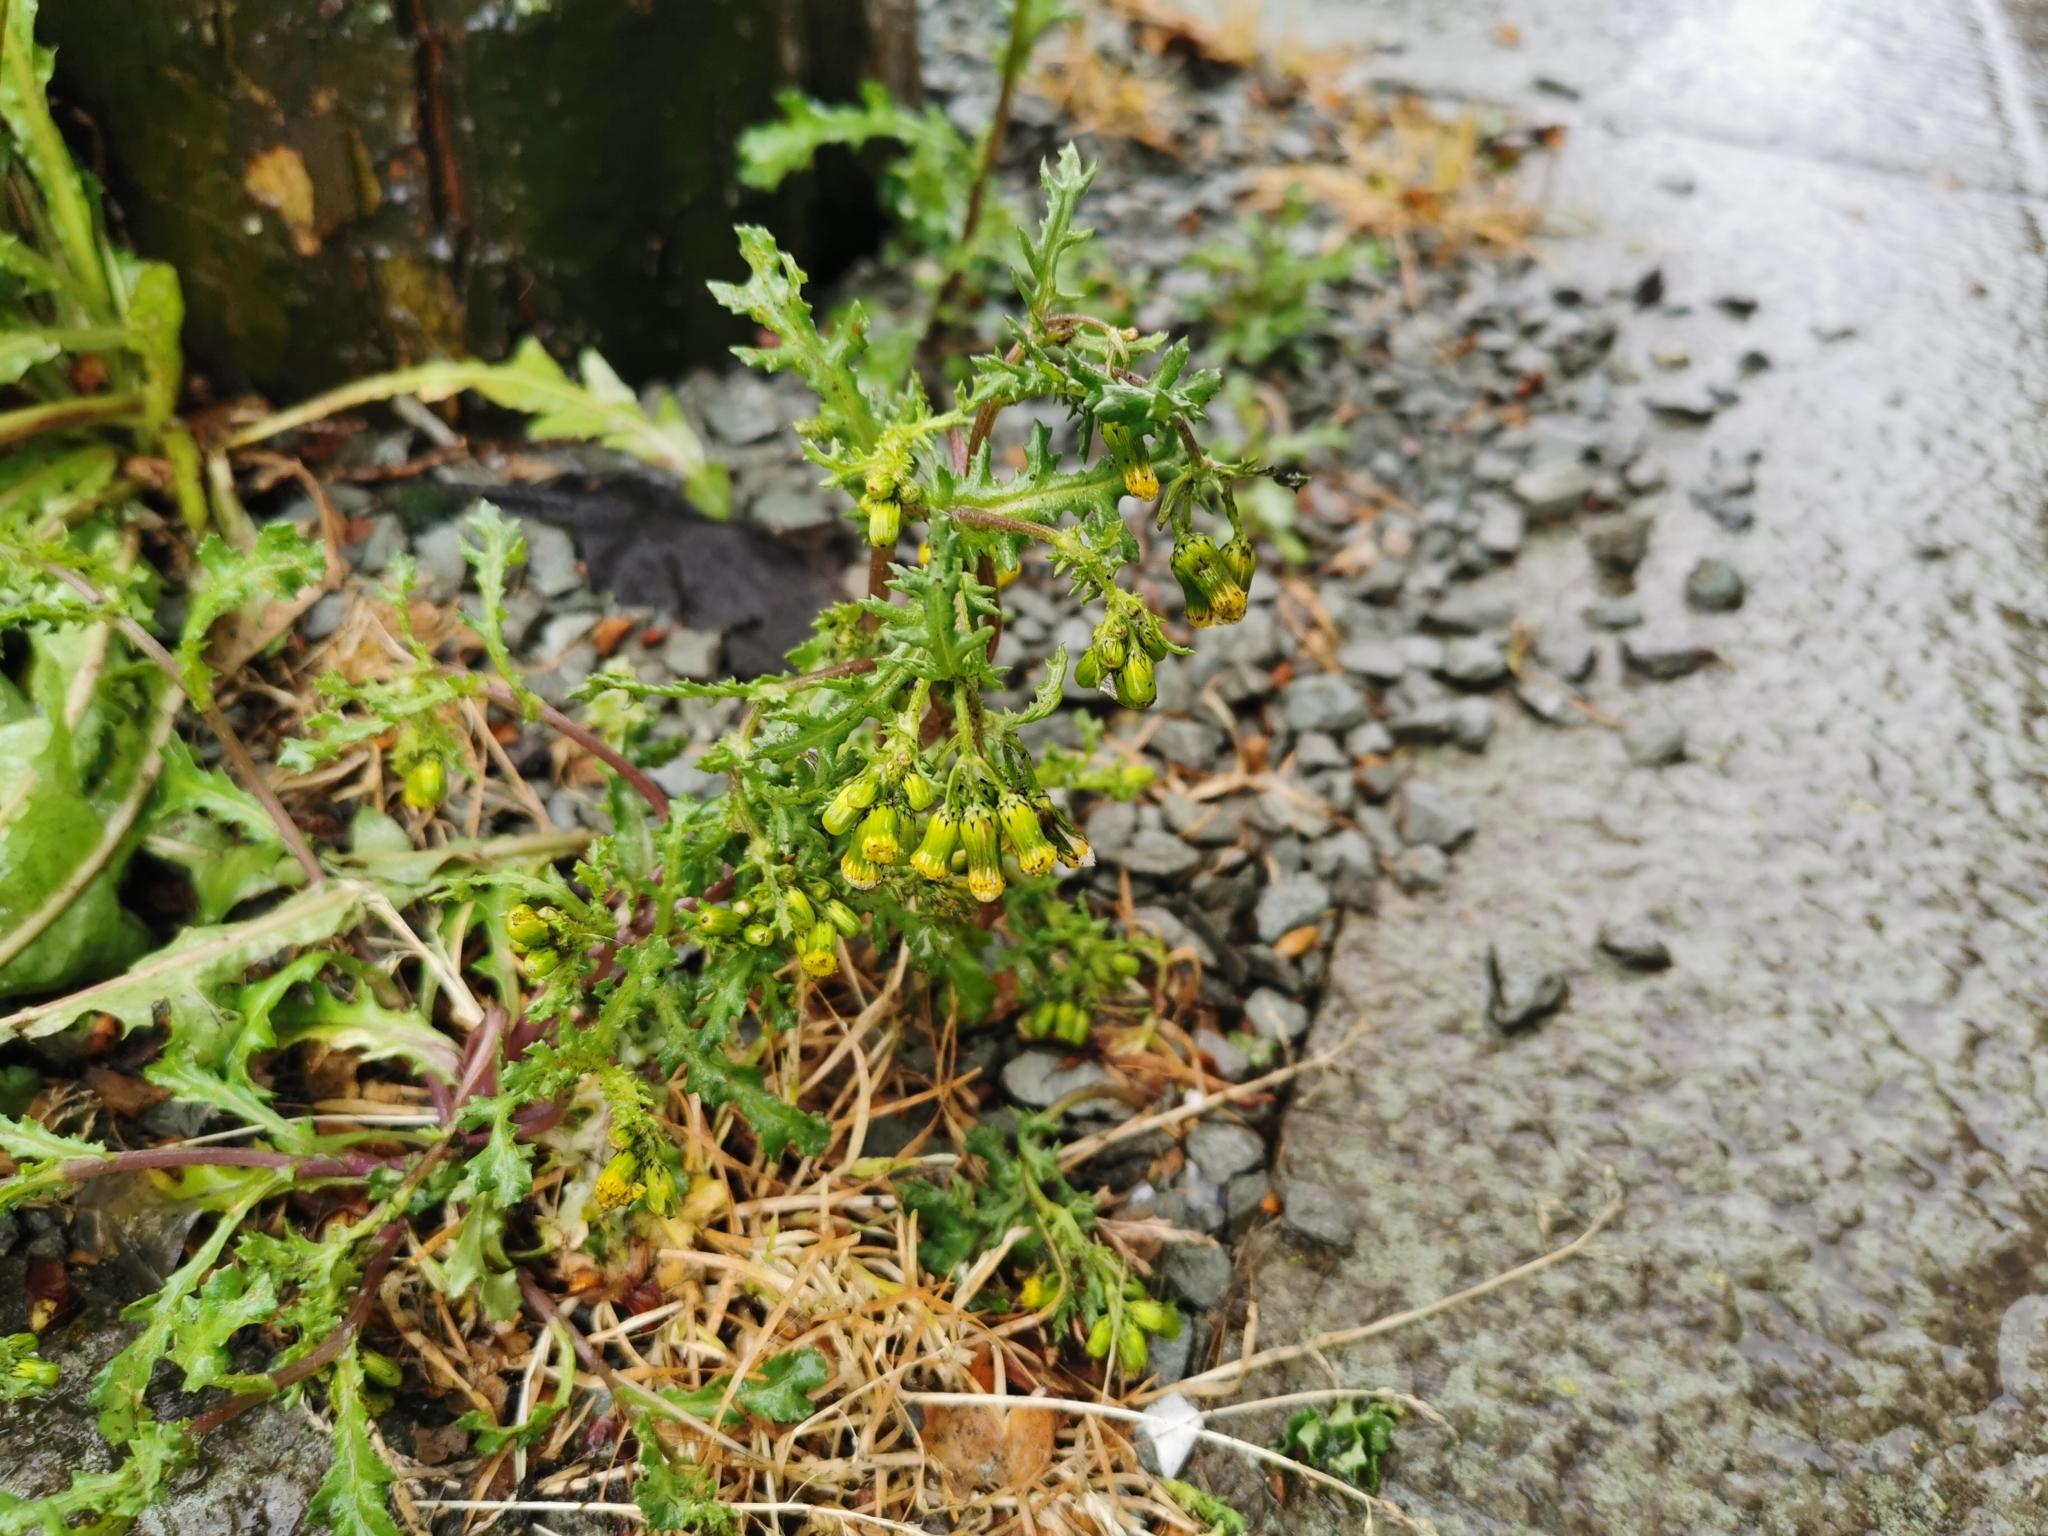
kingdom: Plantae
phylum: Tracheophyta
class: Magnoliopsida
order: Asterales
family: Asteraceae
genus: Senecio
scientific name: Senecio vulgaris
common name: Old-man-in-the-spring
